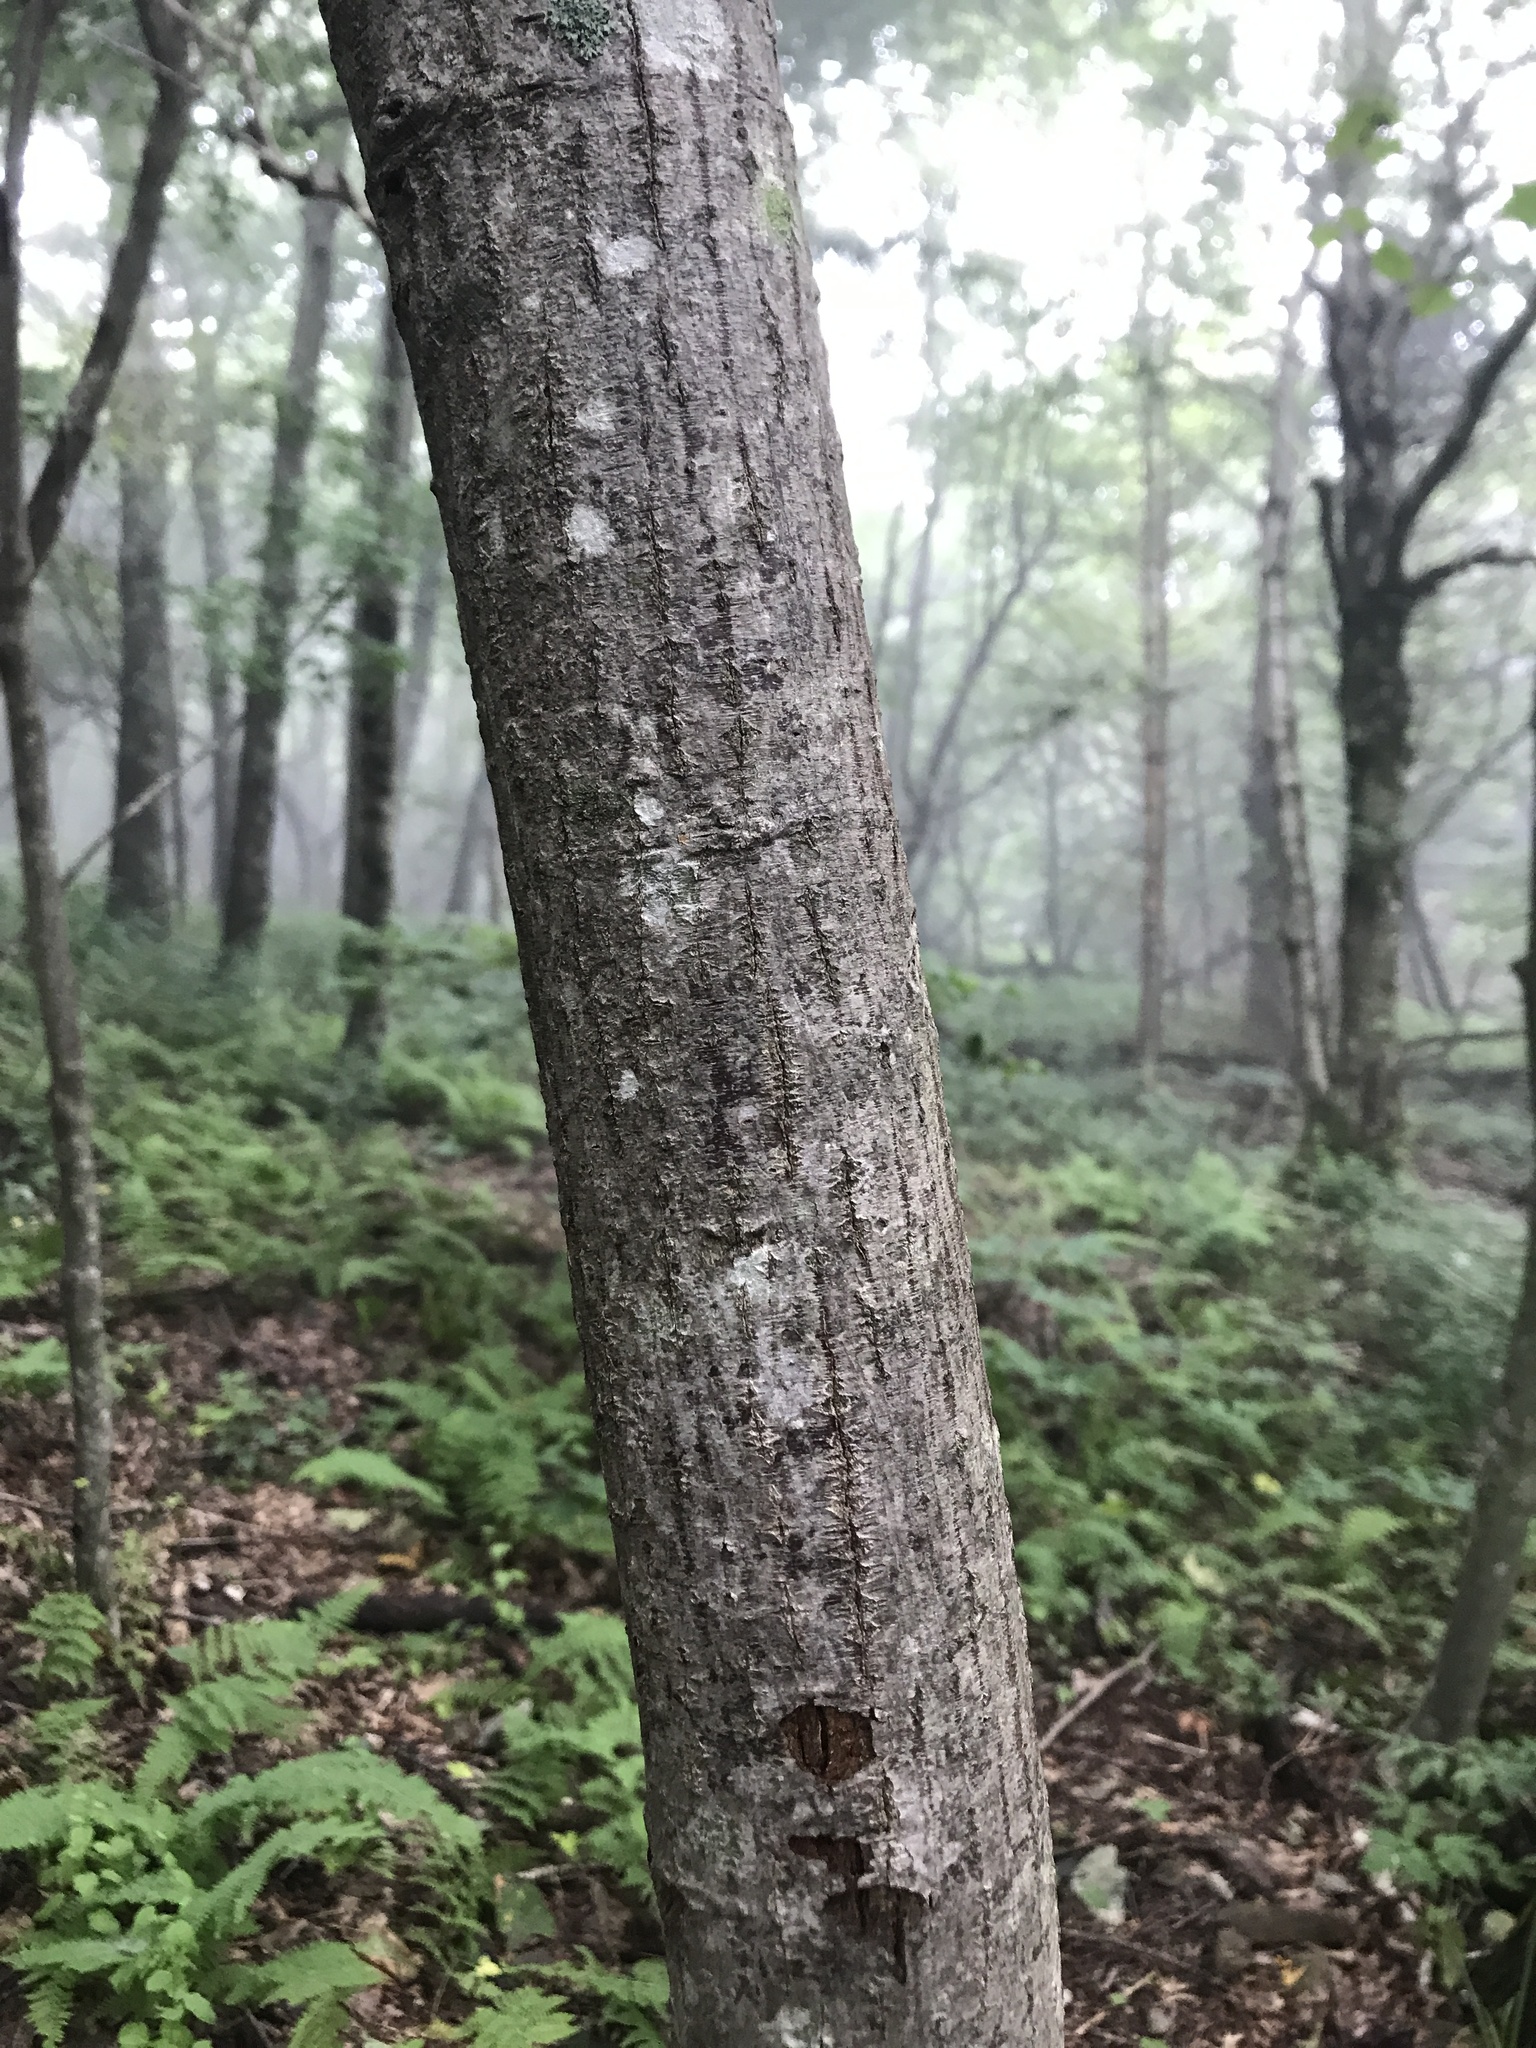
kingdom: Plantae
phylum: Tracheophyta
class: Magnoliopsida
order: Sapindales
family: Sapindaceae
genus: Acer
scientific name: Acer pensylvanicum
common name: Moosewood
